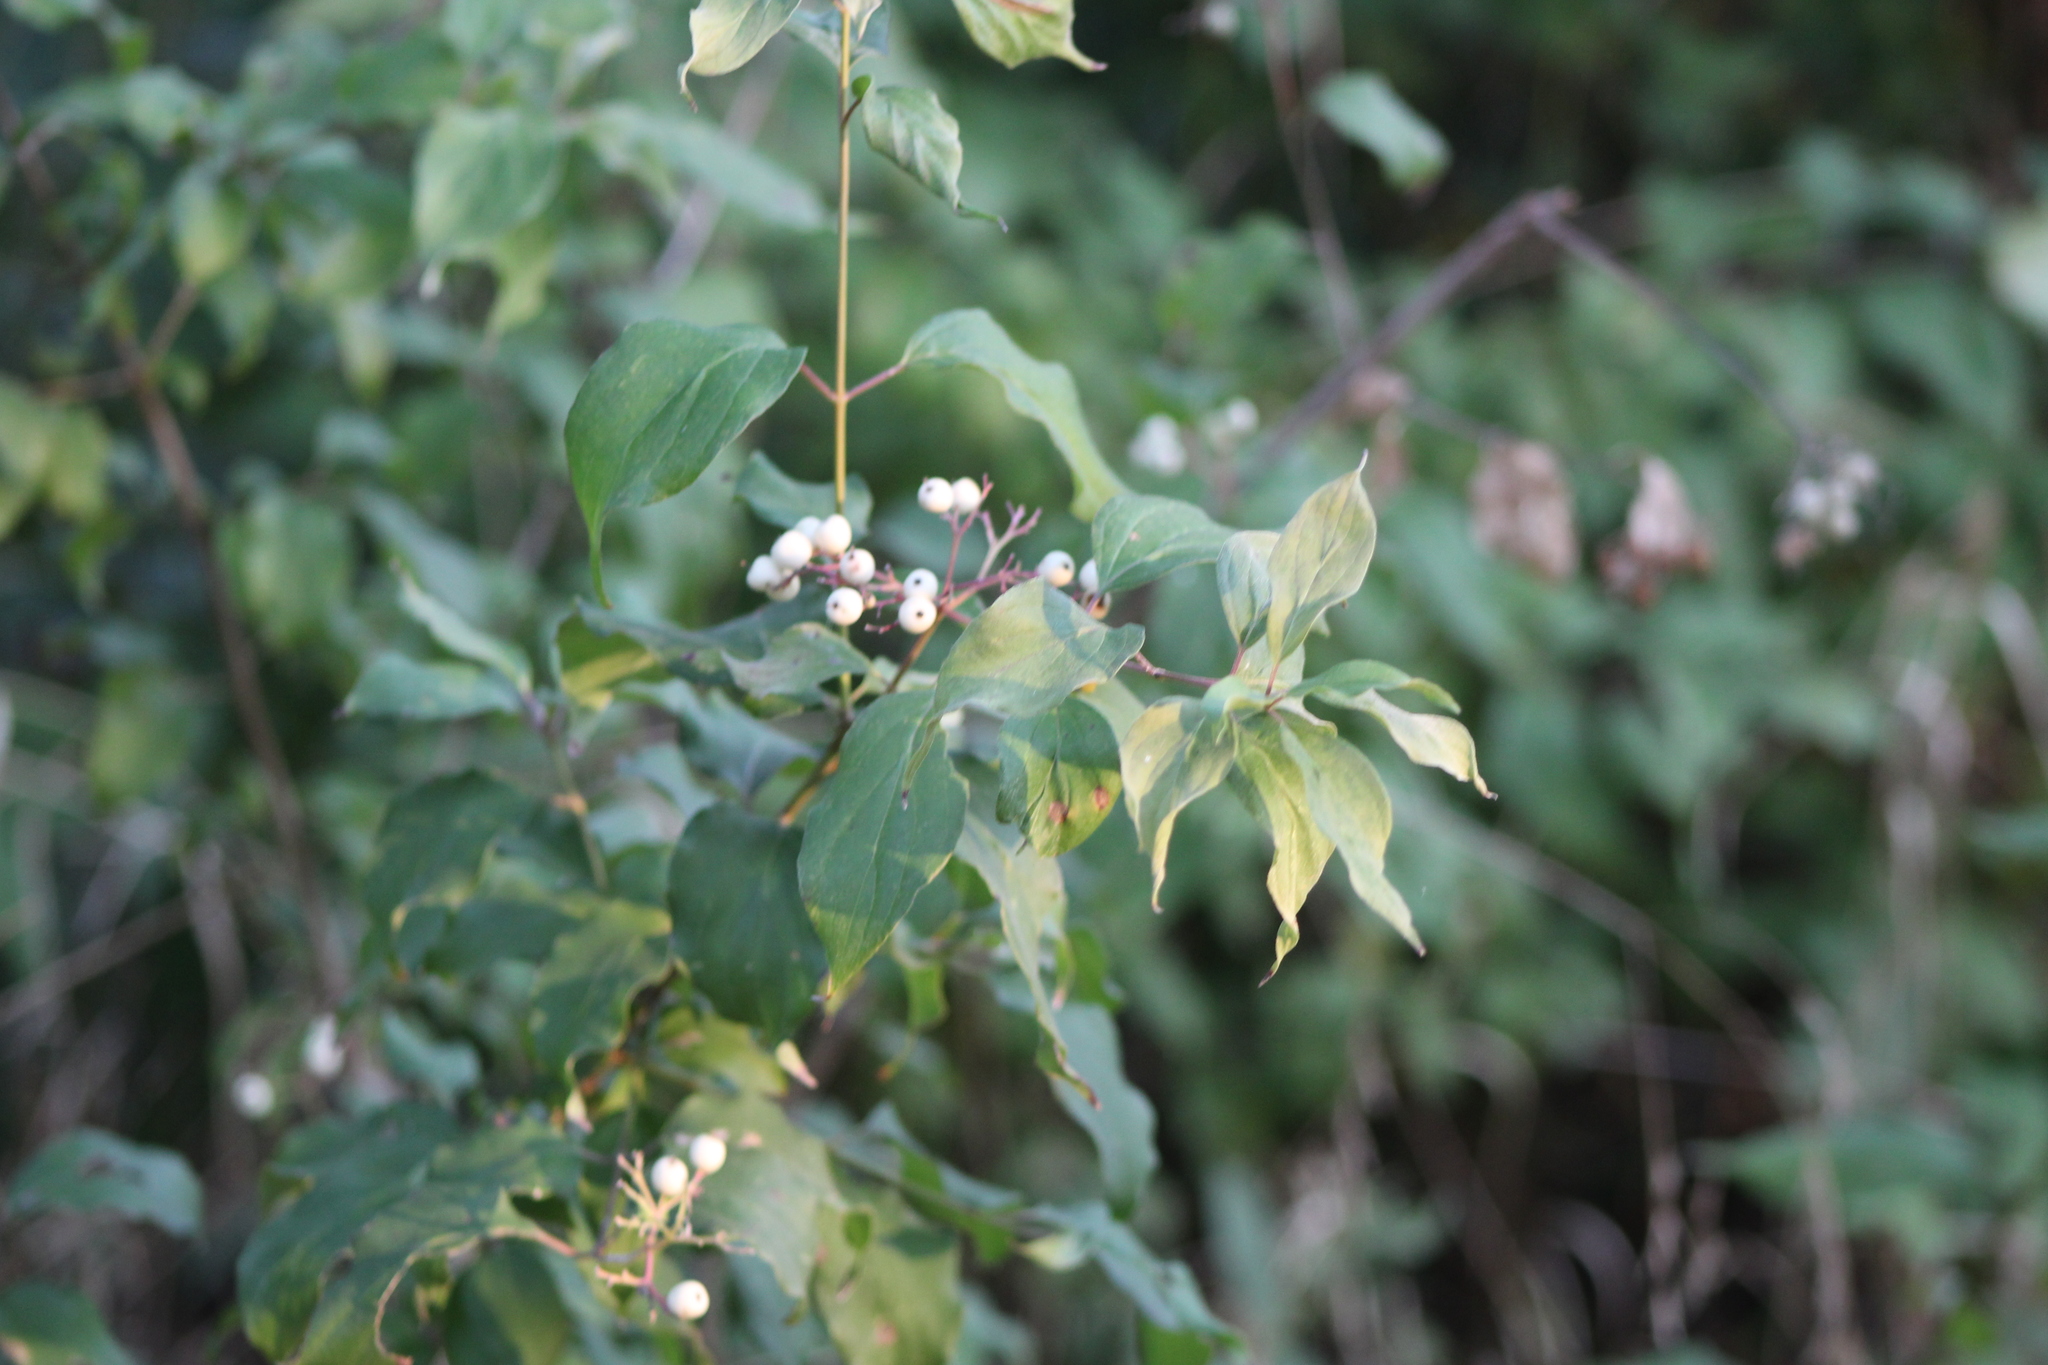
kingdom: Plantae
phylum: Tracheophyta
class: Magnoliopsida
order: Cornales
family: Cornaceae
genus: Cornus
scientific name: Cornus drummondii
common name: Rough-leaf dogwood
